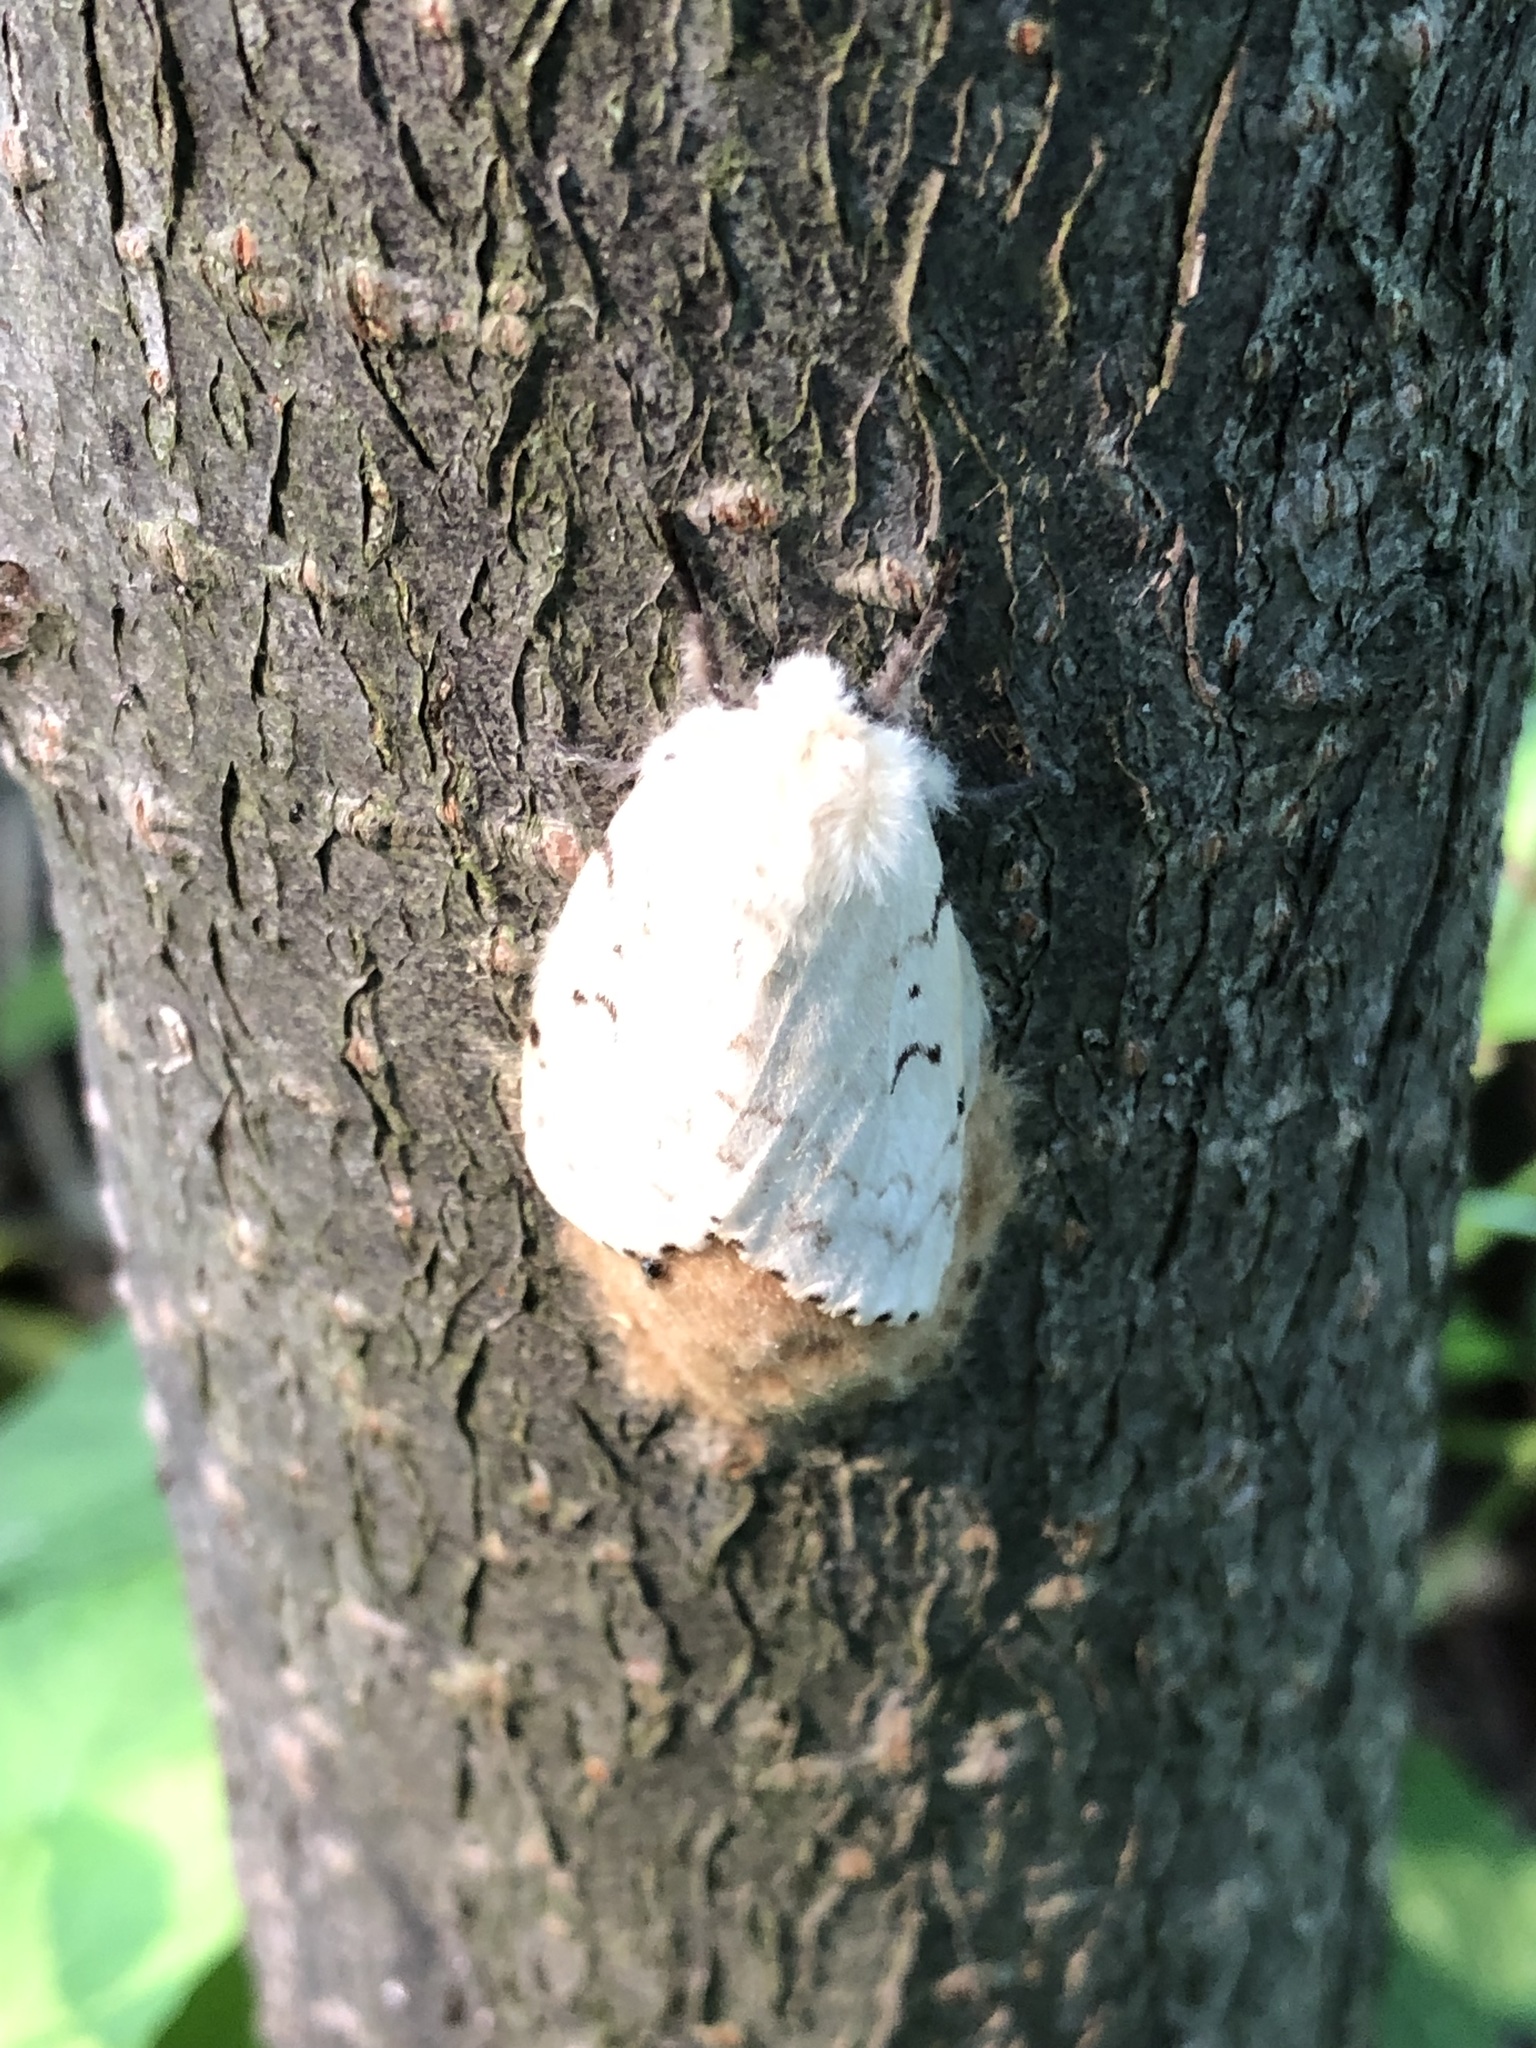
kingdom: Animalia
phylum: Arthropoda
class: Insecta
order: Lepidoptera
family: Erebidae
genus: Lymantria
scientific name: Lymantria dispar
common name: Gypsy moth
